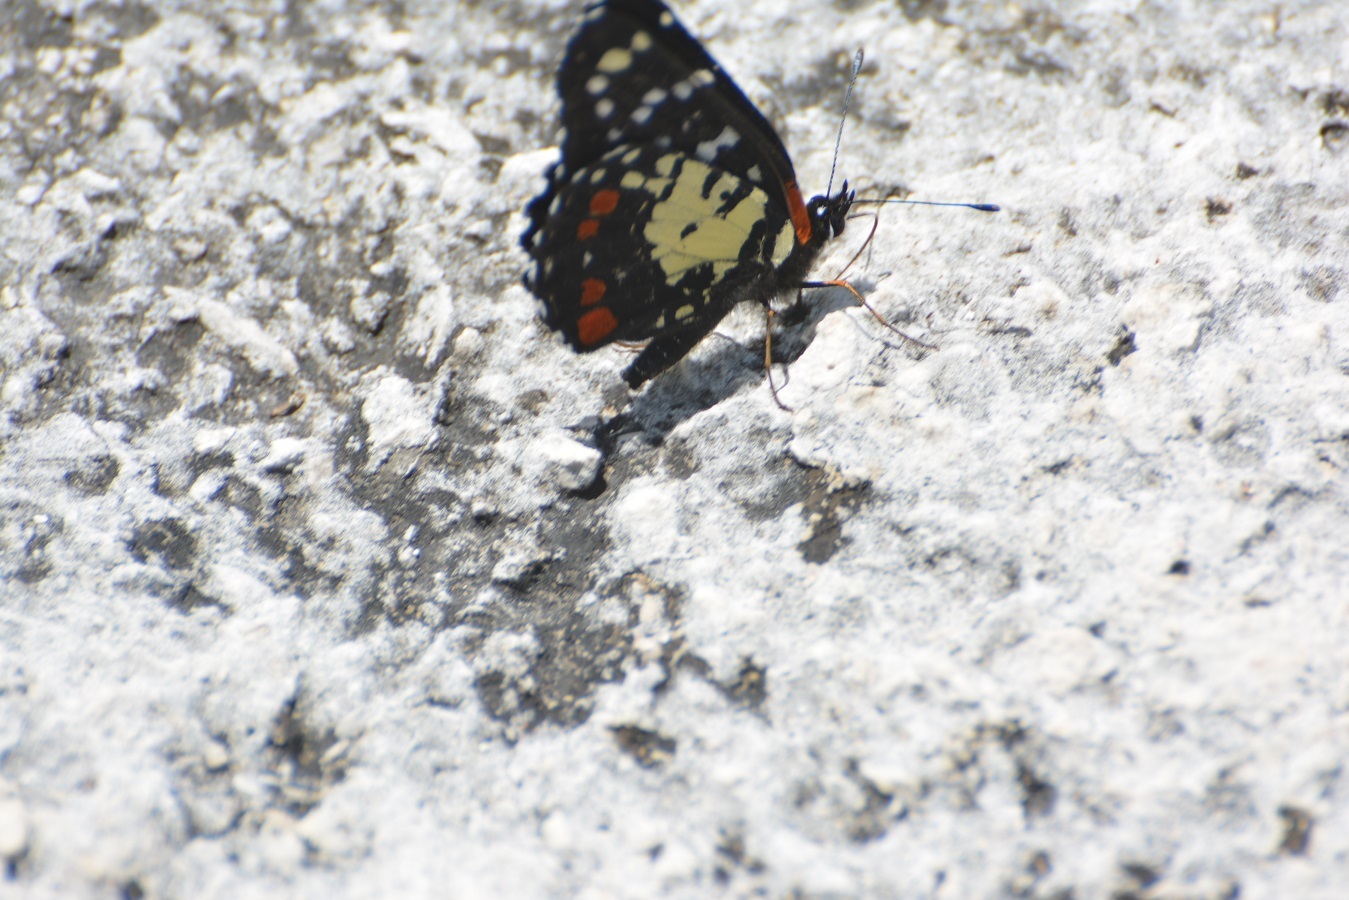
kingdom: Animalia
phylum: Arthropoda
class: Insecta
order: Lepidoptera
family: Nymphalidae
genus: Chlosyne
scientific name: Chlosyne erodyle
